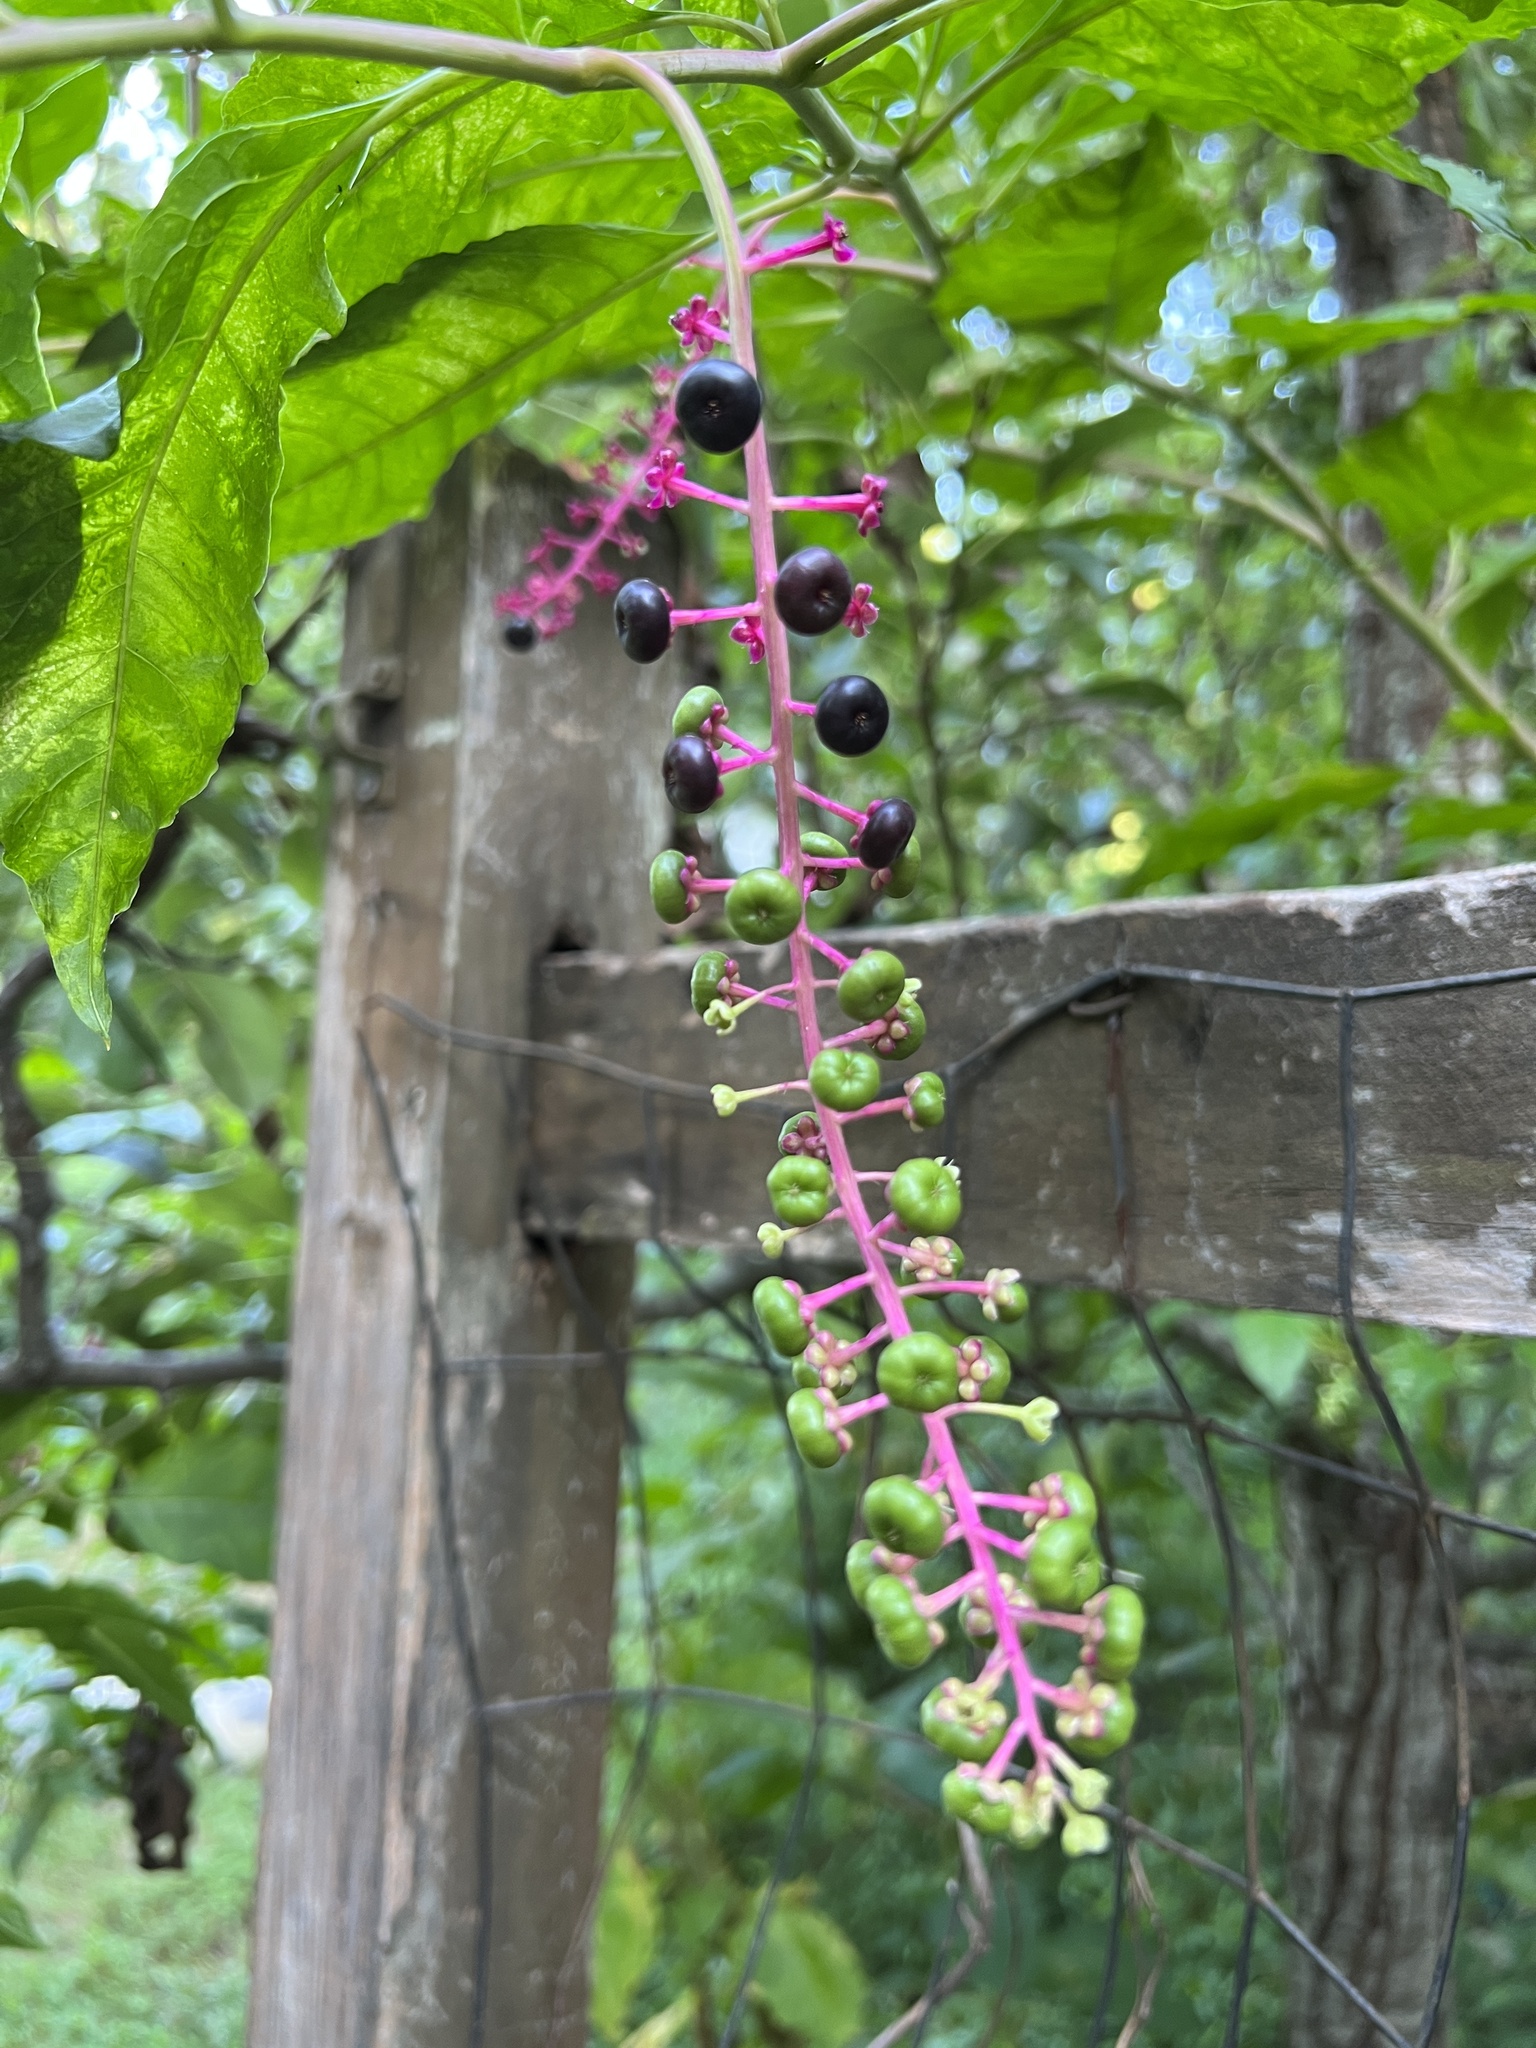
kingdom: Plantae
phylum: Tracheophyta
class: Magnoliopsida
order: Caryophyllales
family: Phytolaccaceae
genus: Phytolacca
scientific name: Phytolacca americana
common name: American pokeweed
